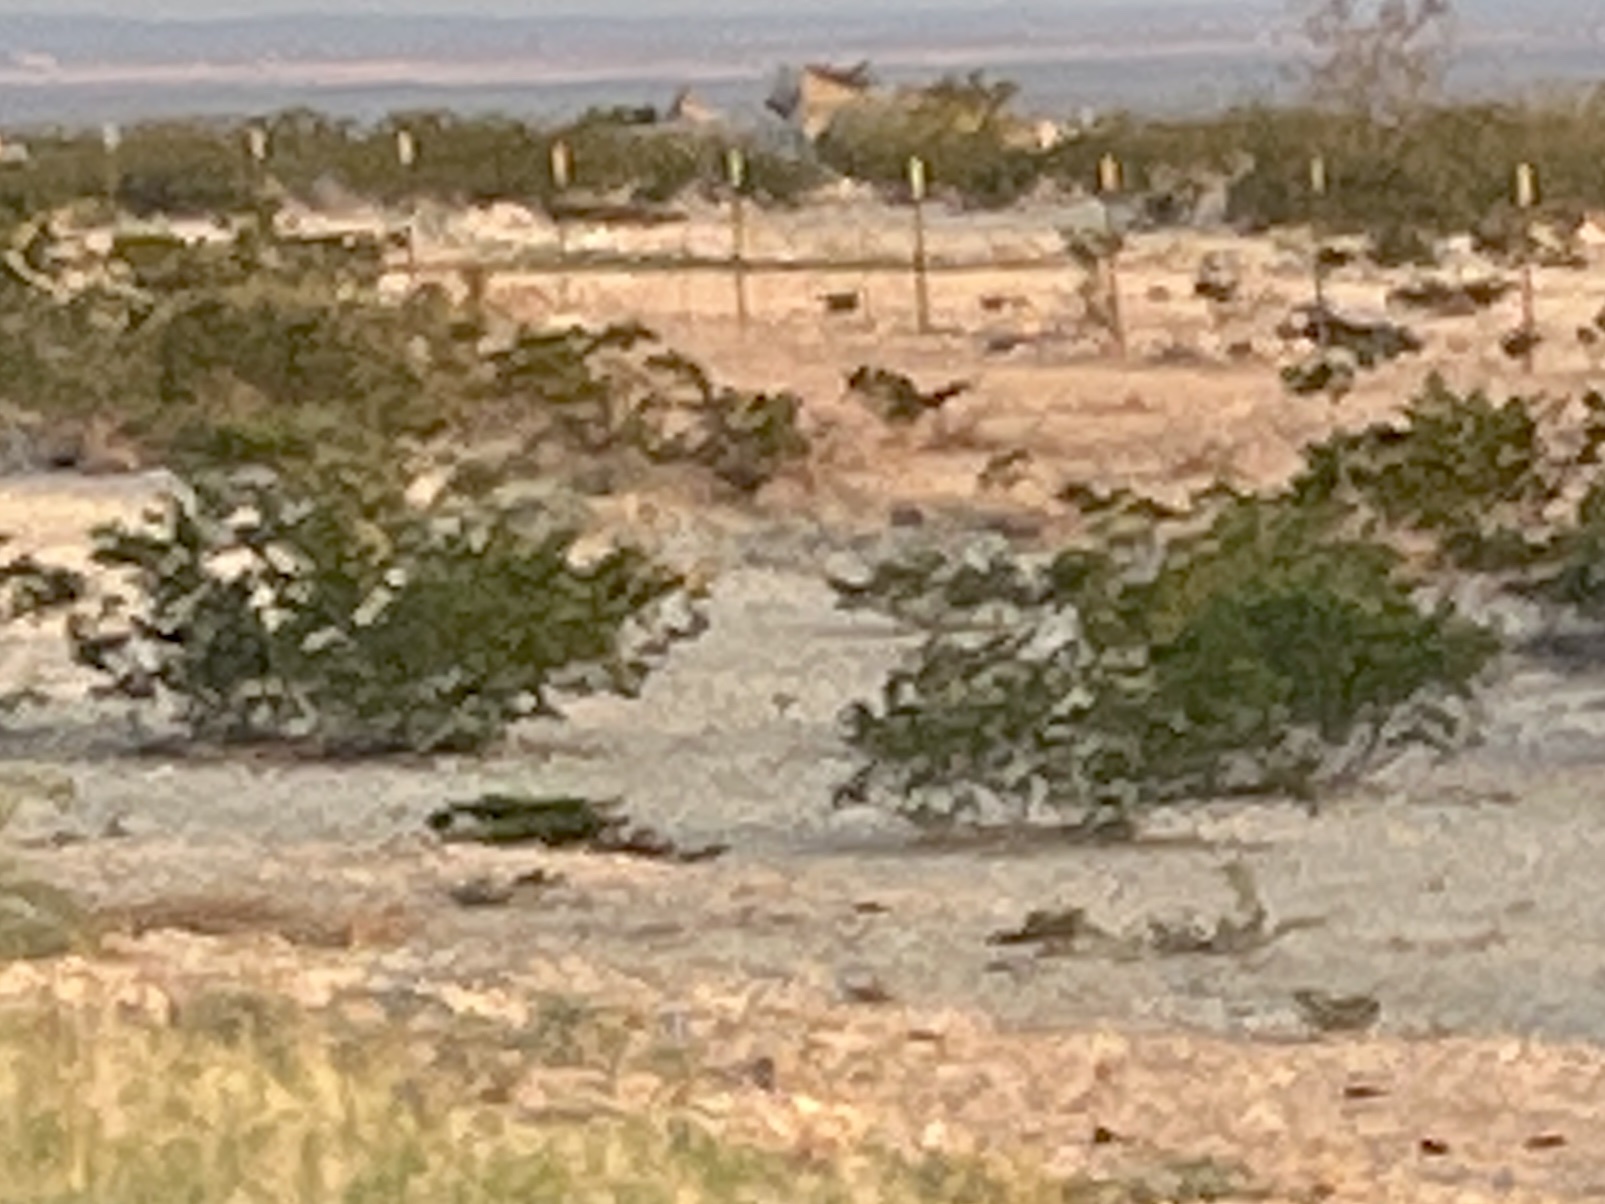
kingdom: Plantae
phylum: Tracheophyta
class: Magnoliopsida
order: Zygophyllales
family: Zygophyllaceae
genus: Larrea
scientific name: Larrea tridentata
